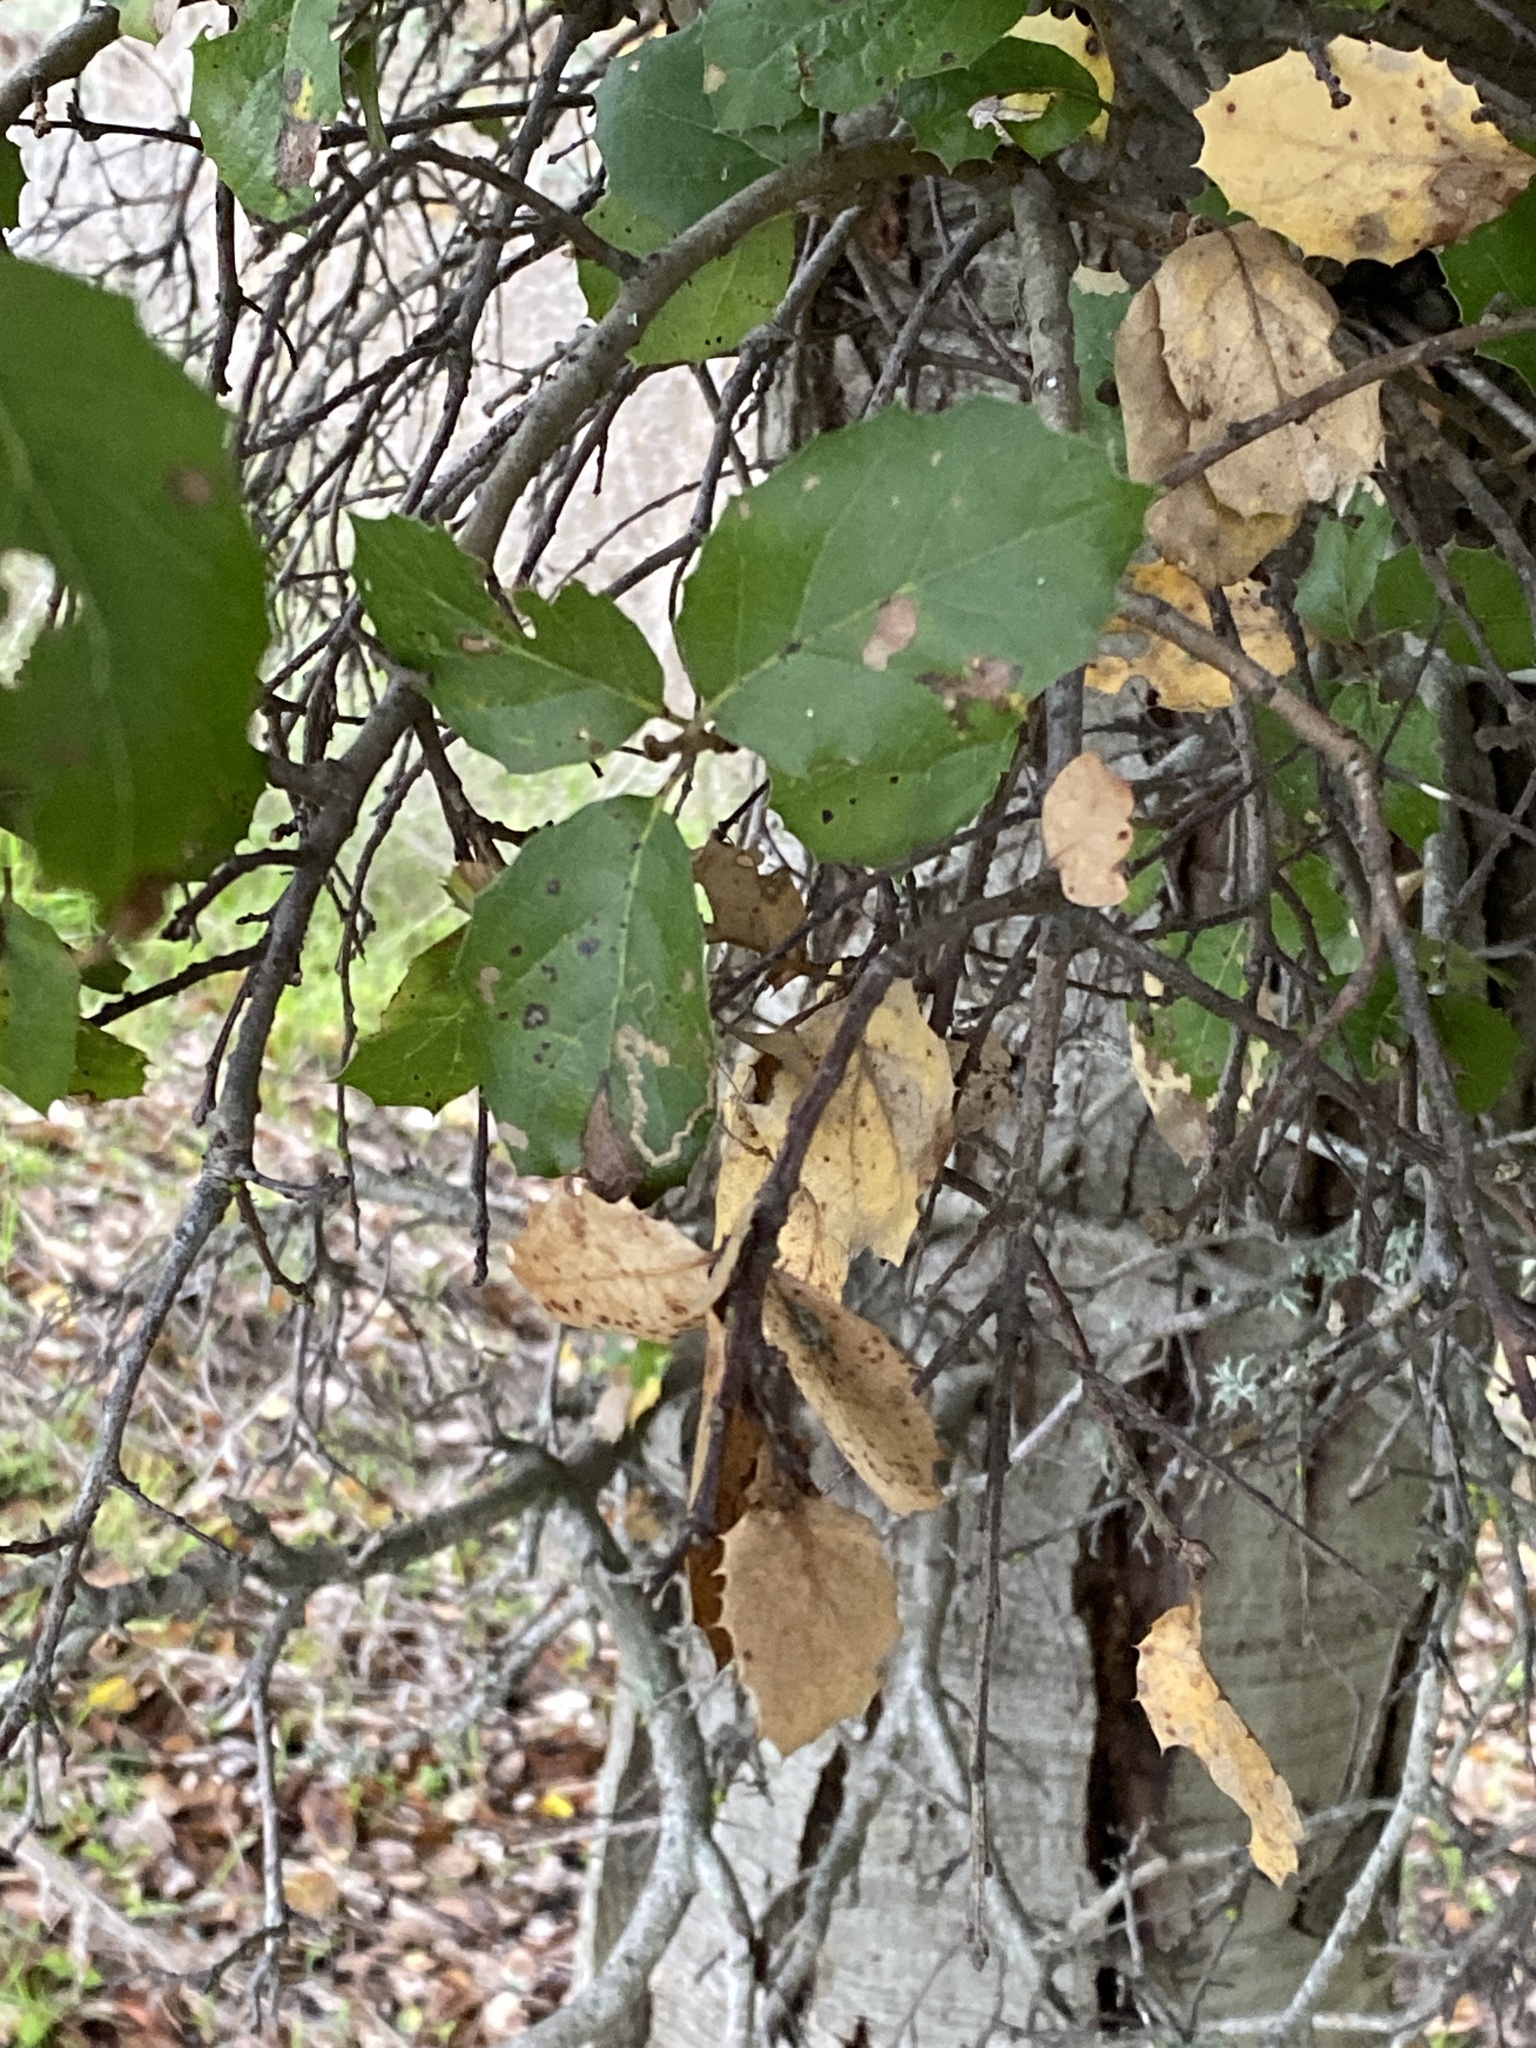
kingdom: Plantae
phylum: Tracheophyta
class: Magnoliopsida
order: Fagales
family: Fagaceae
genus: Quercus
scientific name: Quercus agrifolia
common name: California live oak
